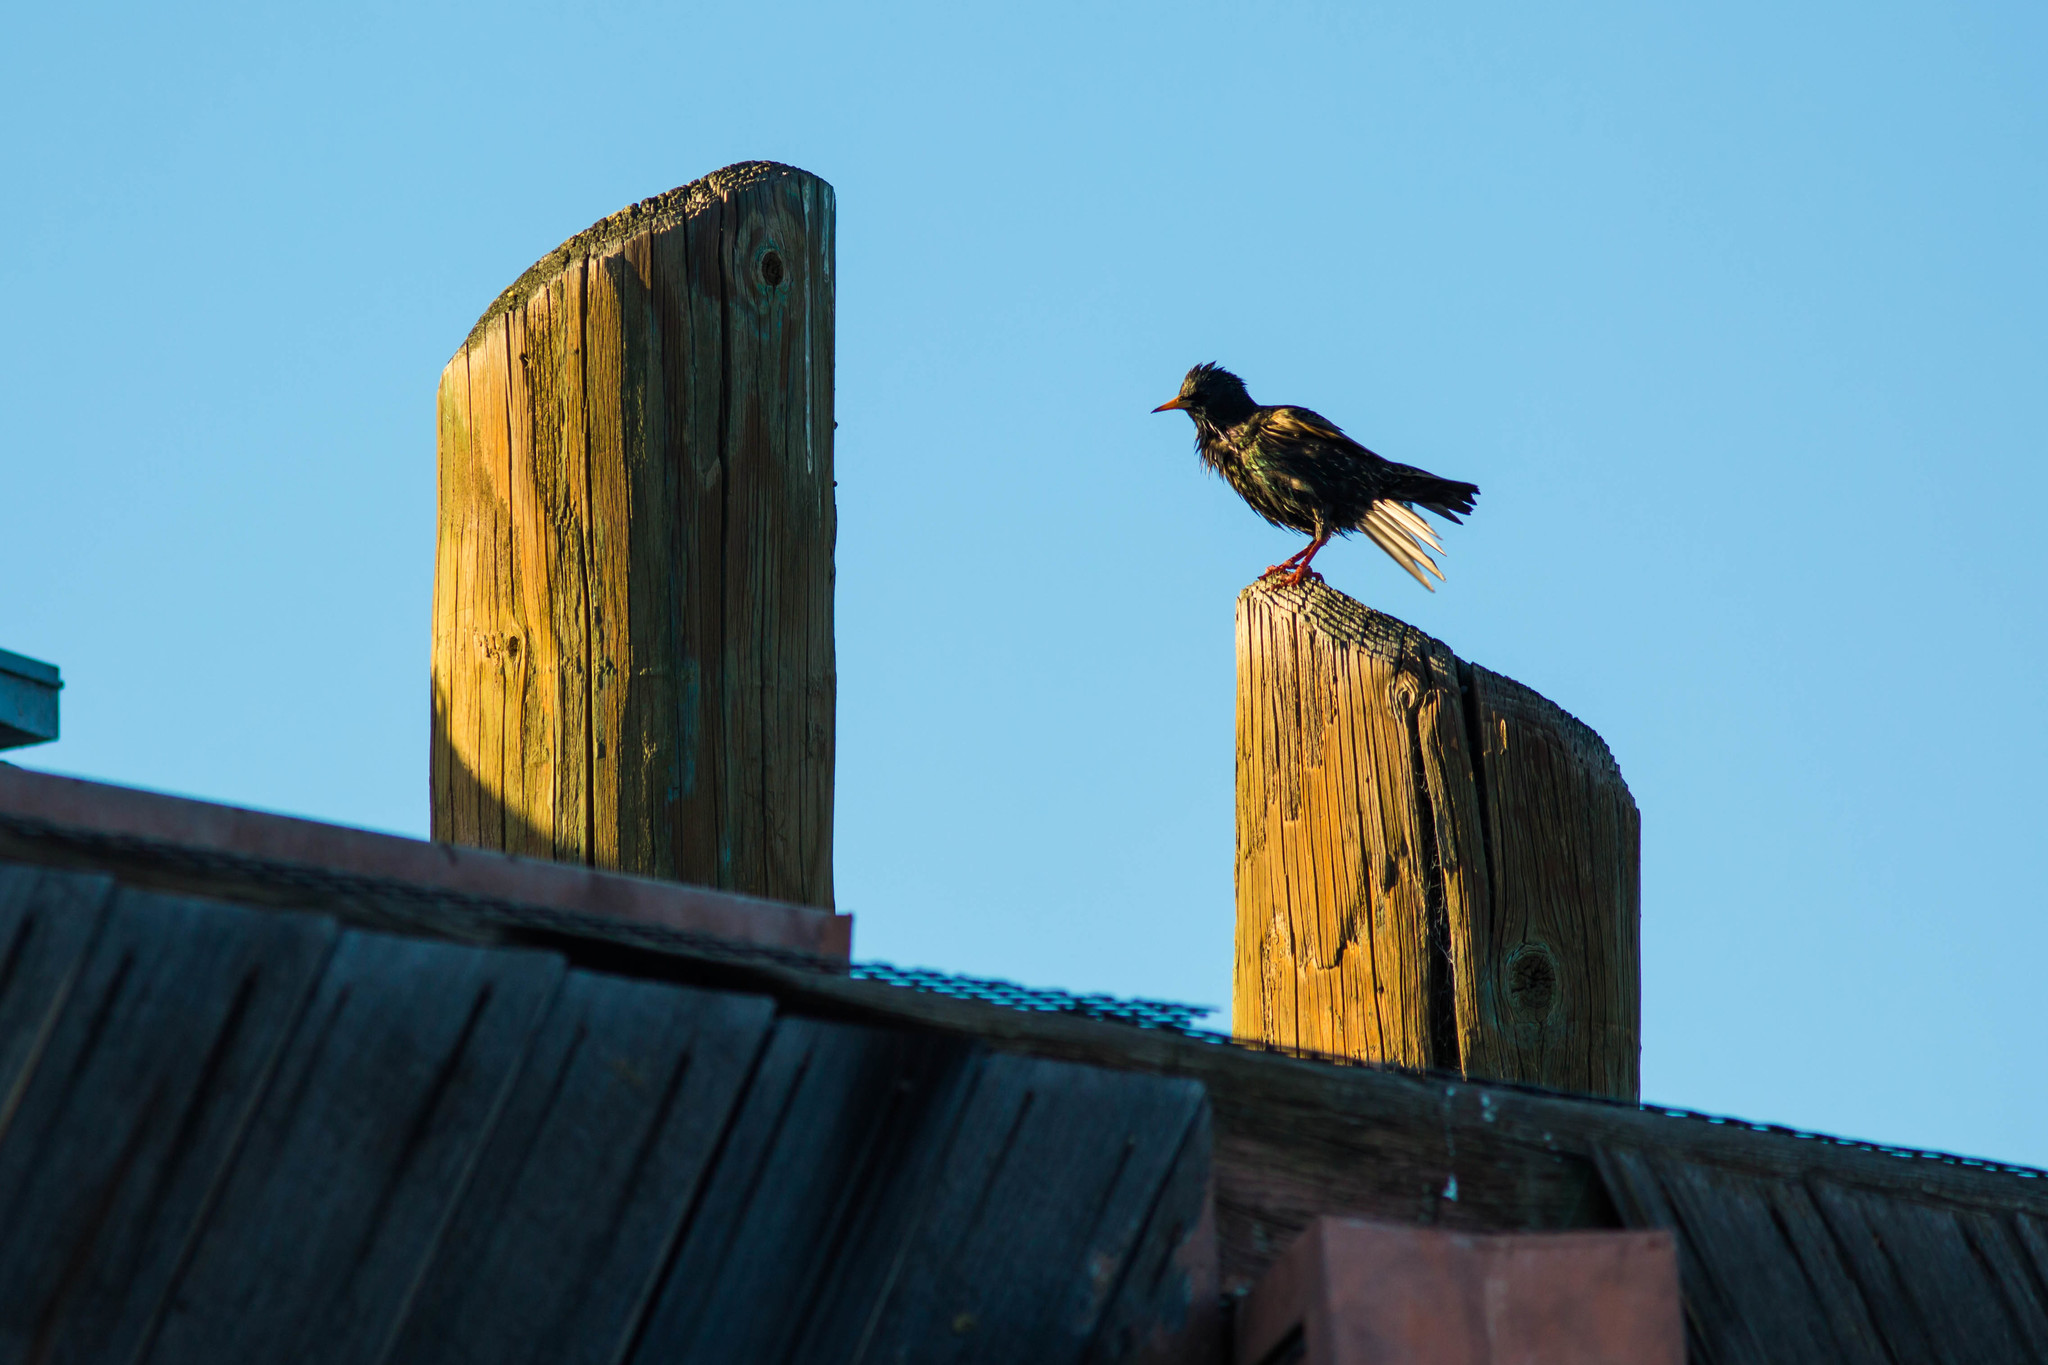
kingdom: Animalia
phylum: Chordata
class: Aves
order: Passeriformes
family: Sturnidae
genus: Sturnus
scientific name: Sturnus vulgaris
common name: Common starling
